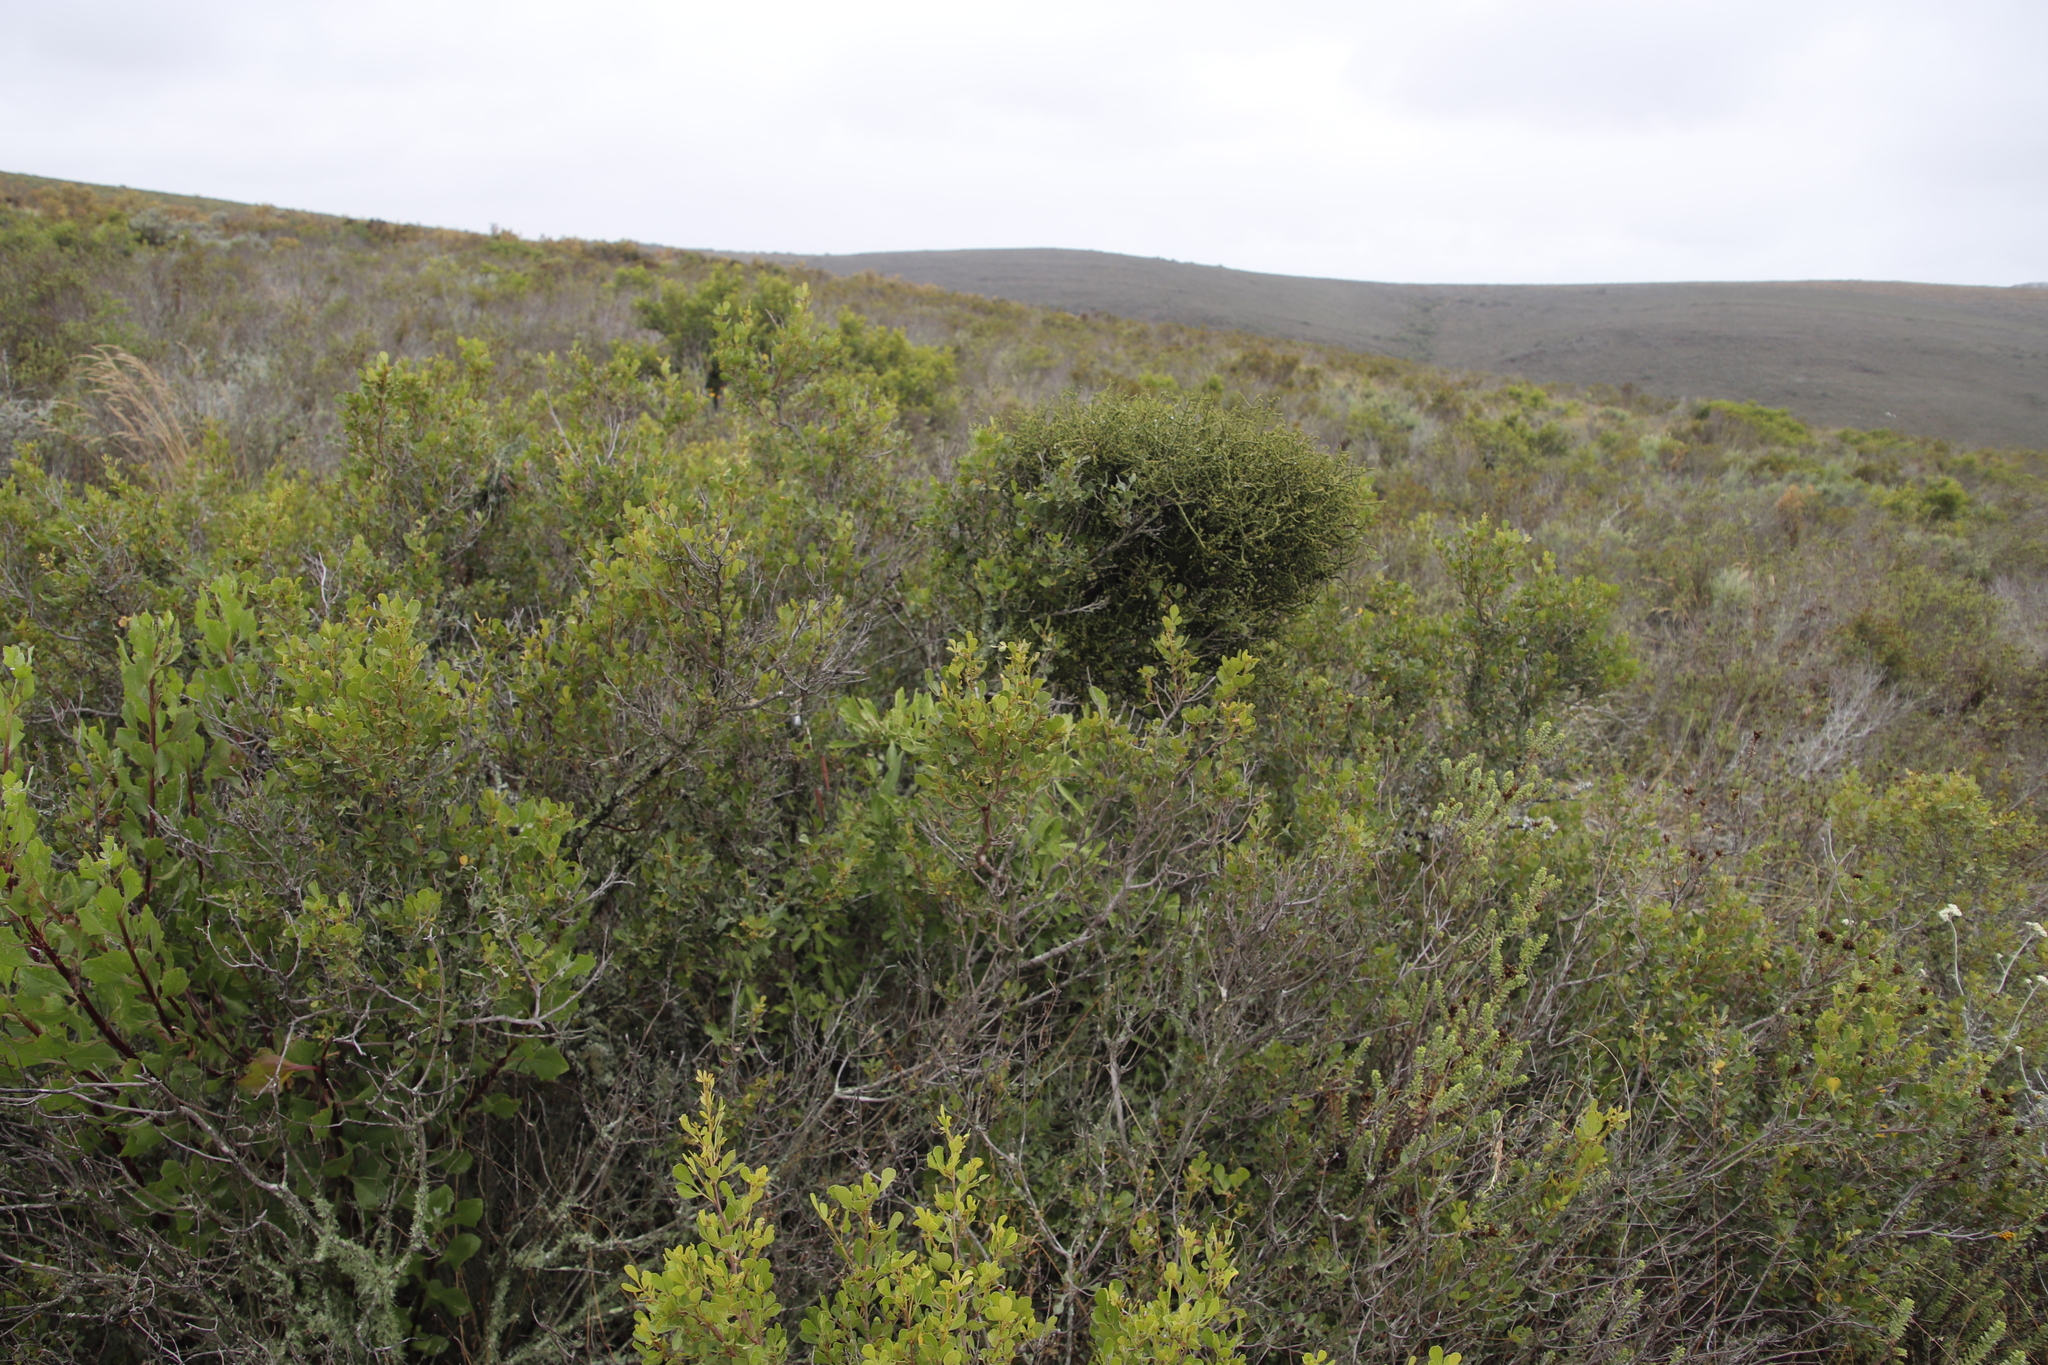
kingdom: Plantae
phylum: Tracheophyta
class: Magnoliopsida
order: Sapindales
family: Anacardiaceae
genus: Searsia
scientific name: Searsia pallens
